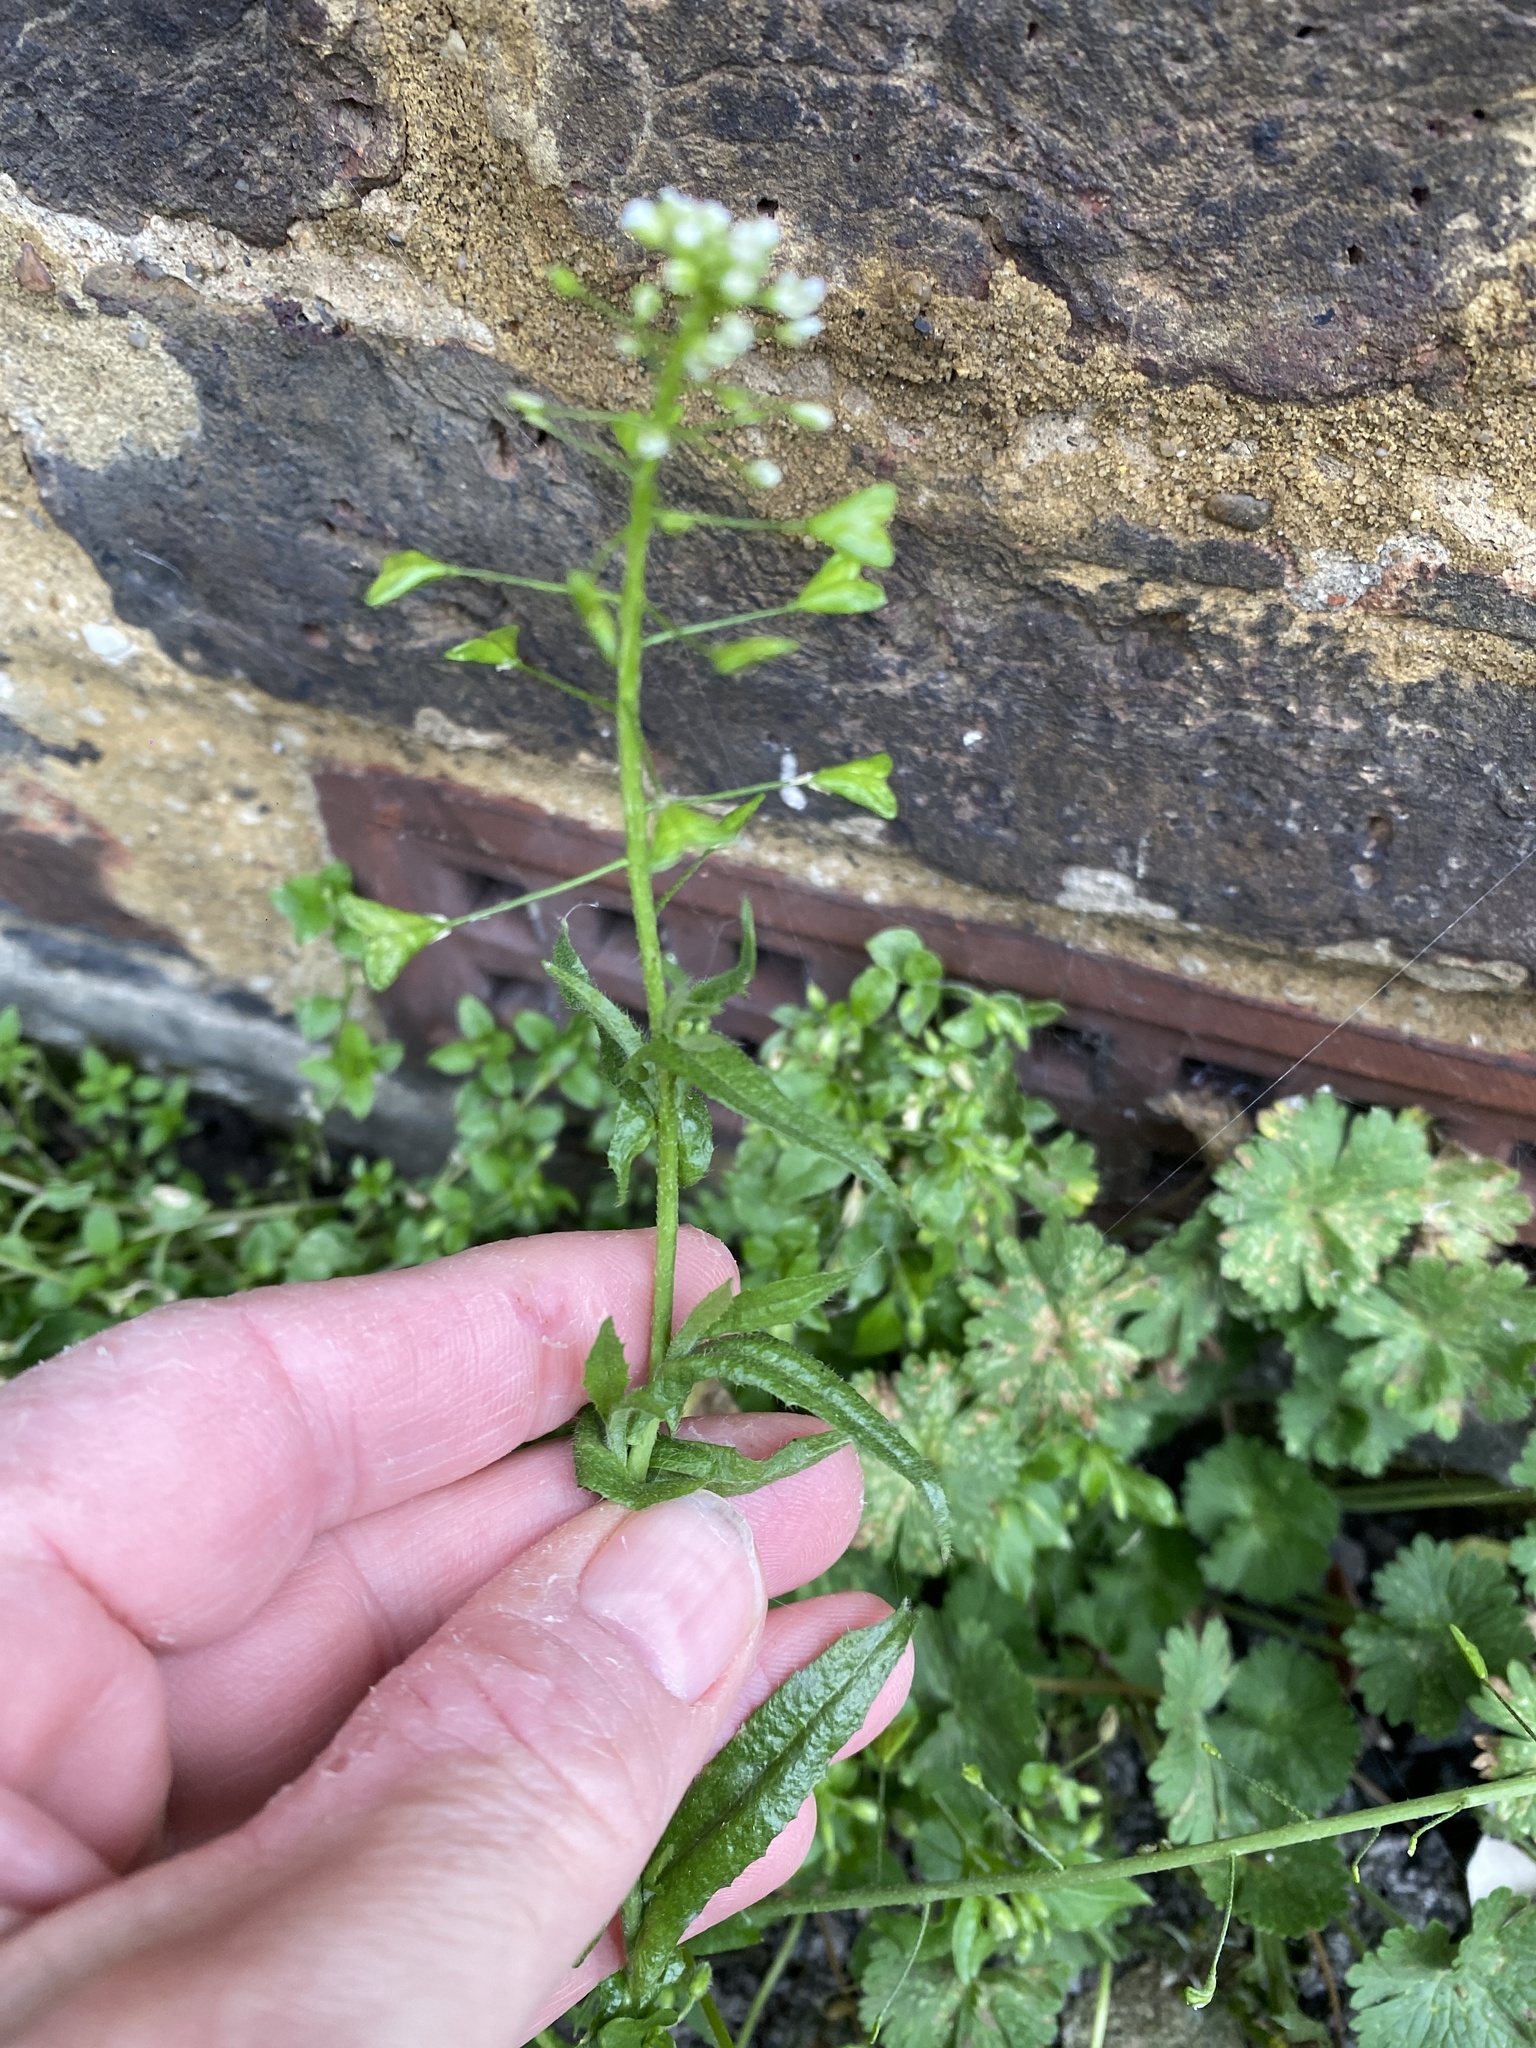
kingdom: Plantae
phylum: Tracheophyta
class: Magnoliopsida
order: Brassicales
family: Brassicaceae
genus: Capsella
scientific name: Capsella bursa-pastoris
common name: Shepherd's purse
